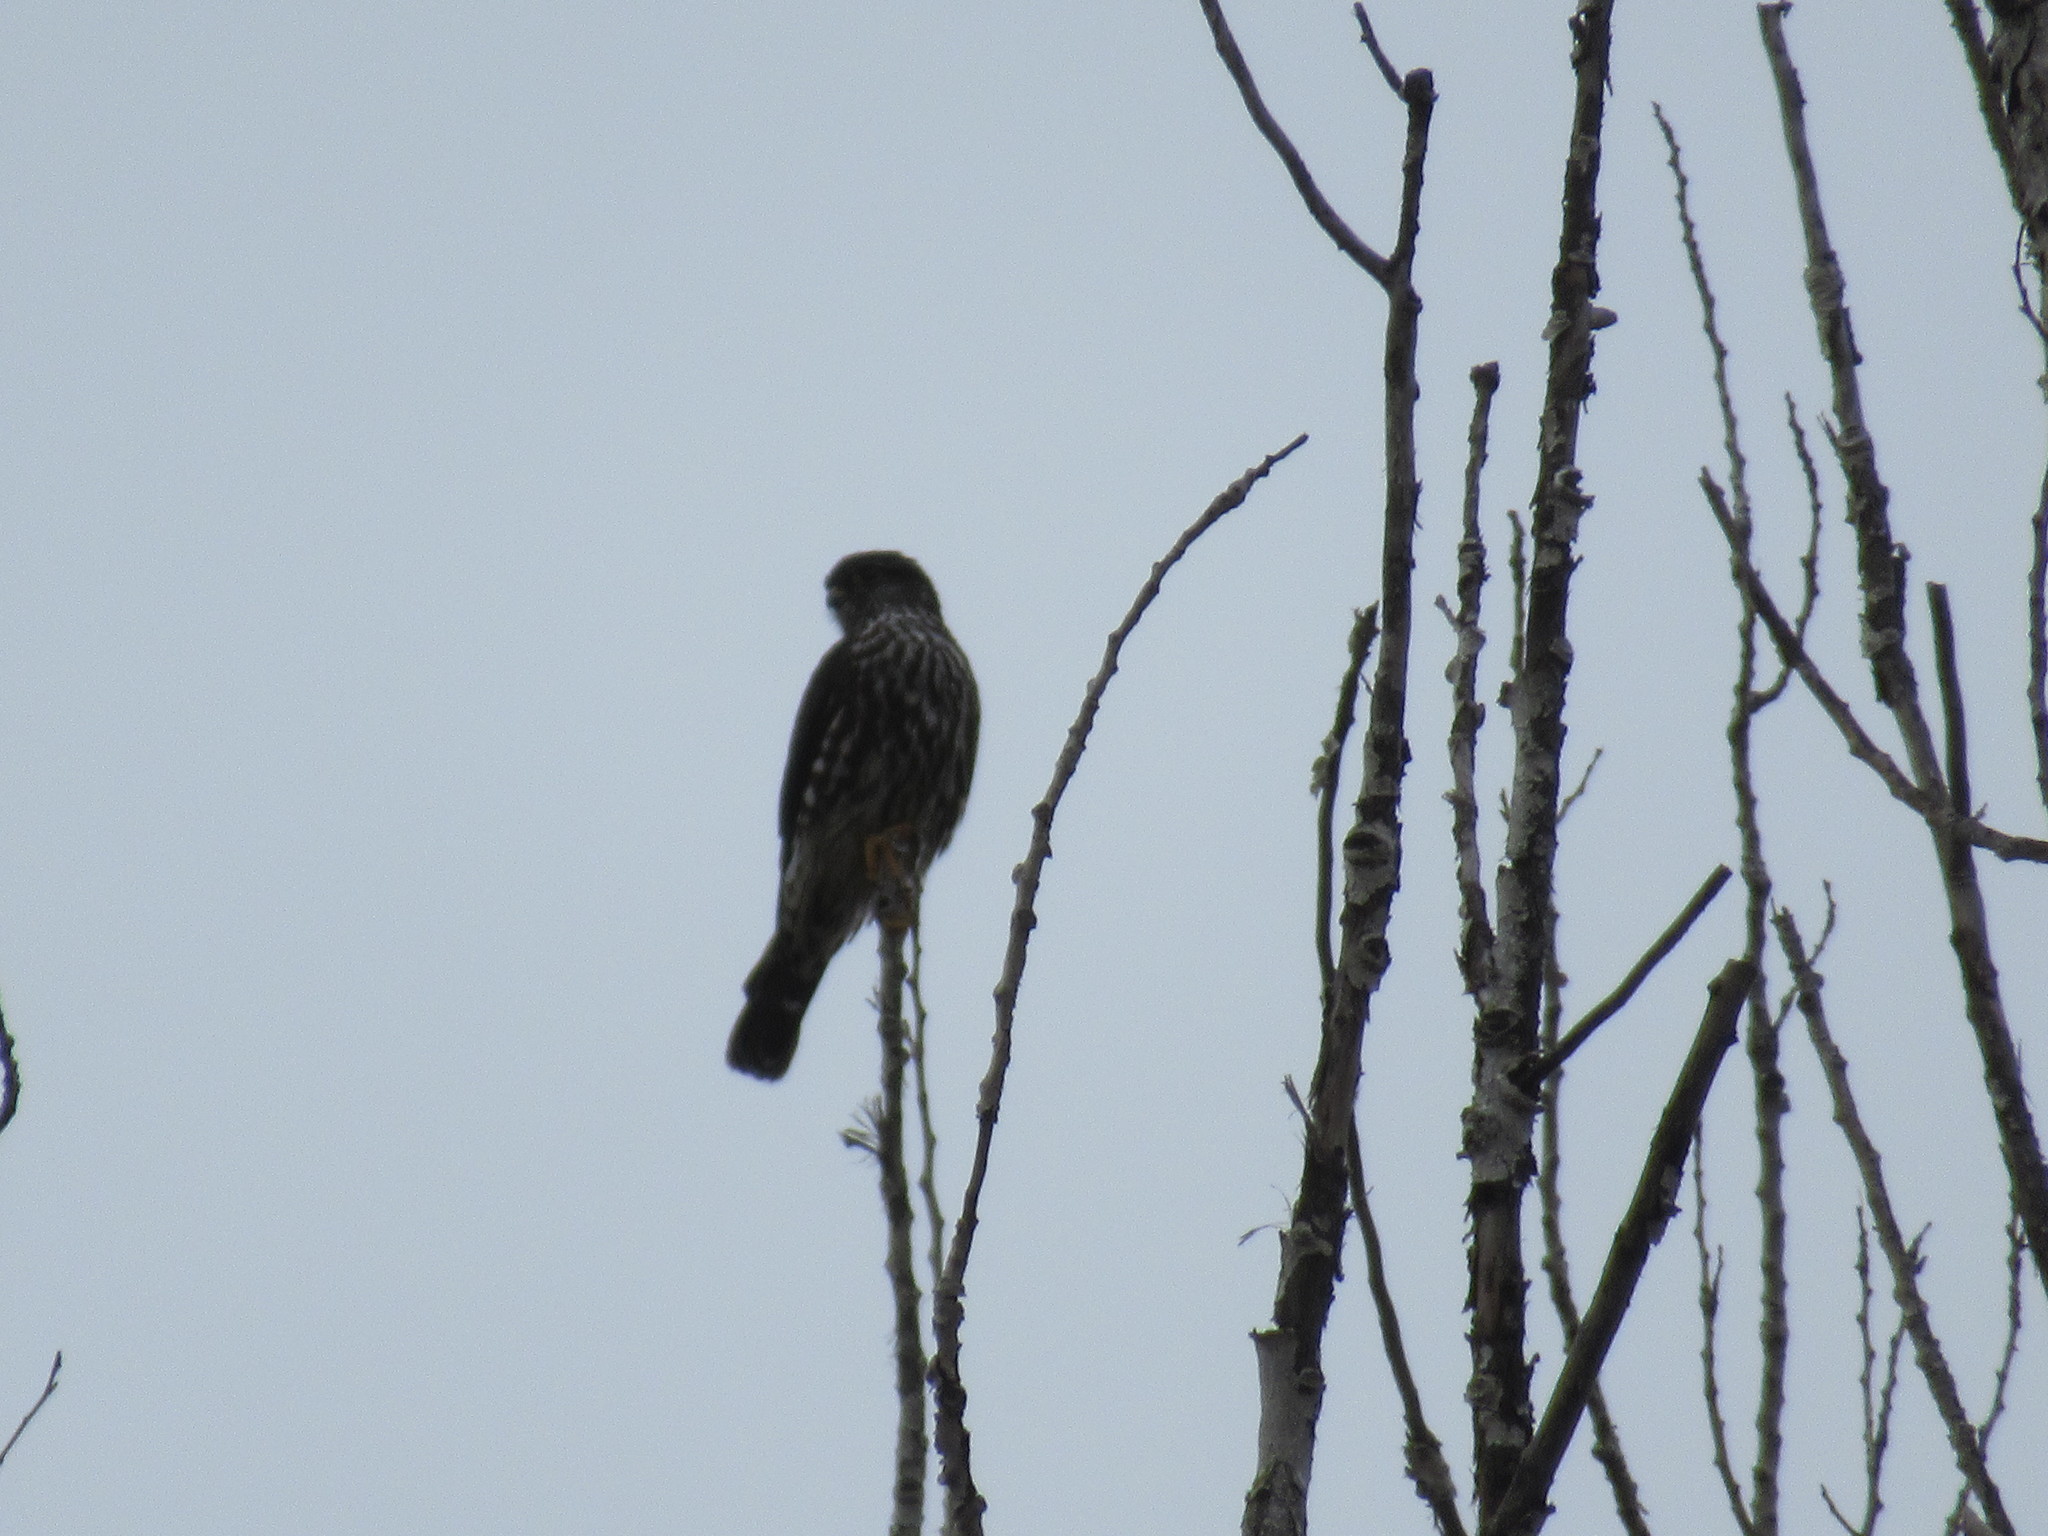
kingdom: Animalia
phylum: Chordata
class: Aves
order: Falconiformes
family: Falconidae
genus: Falco
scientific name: Falco columbarius
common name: Merlin
